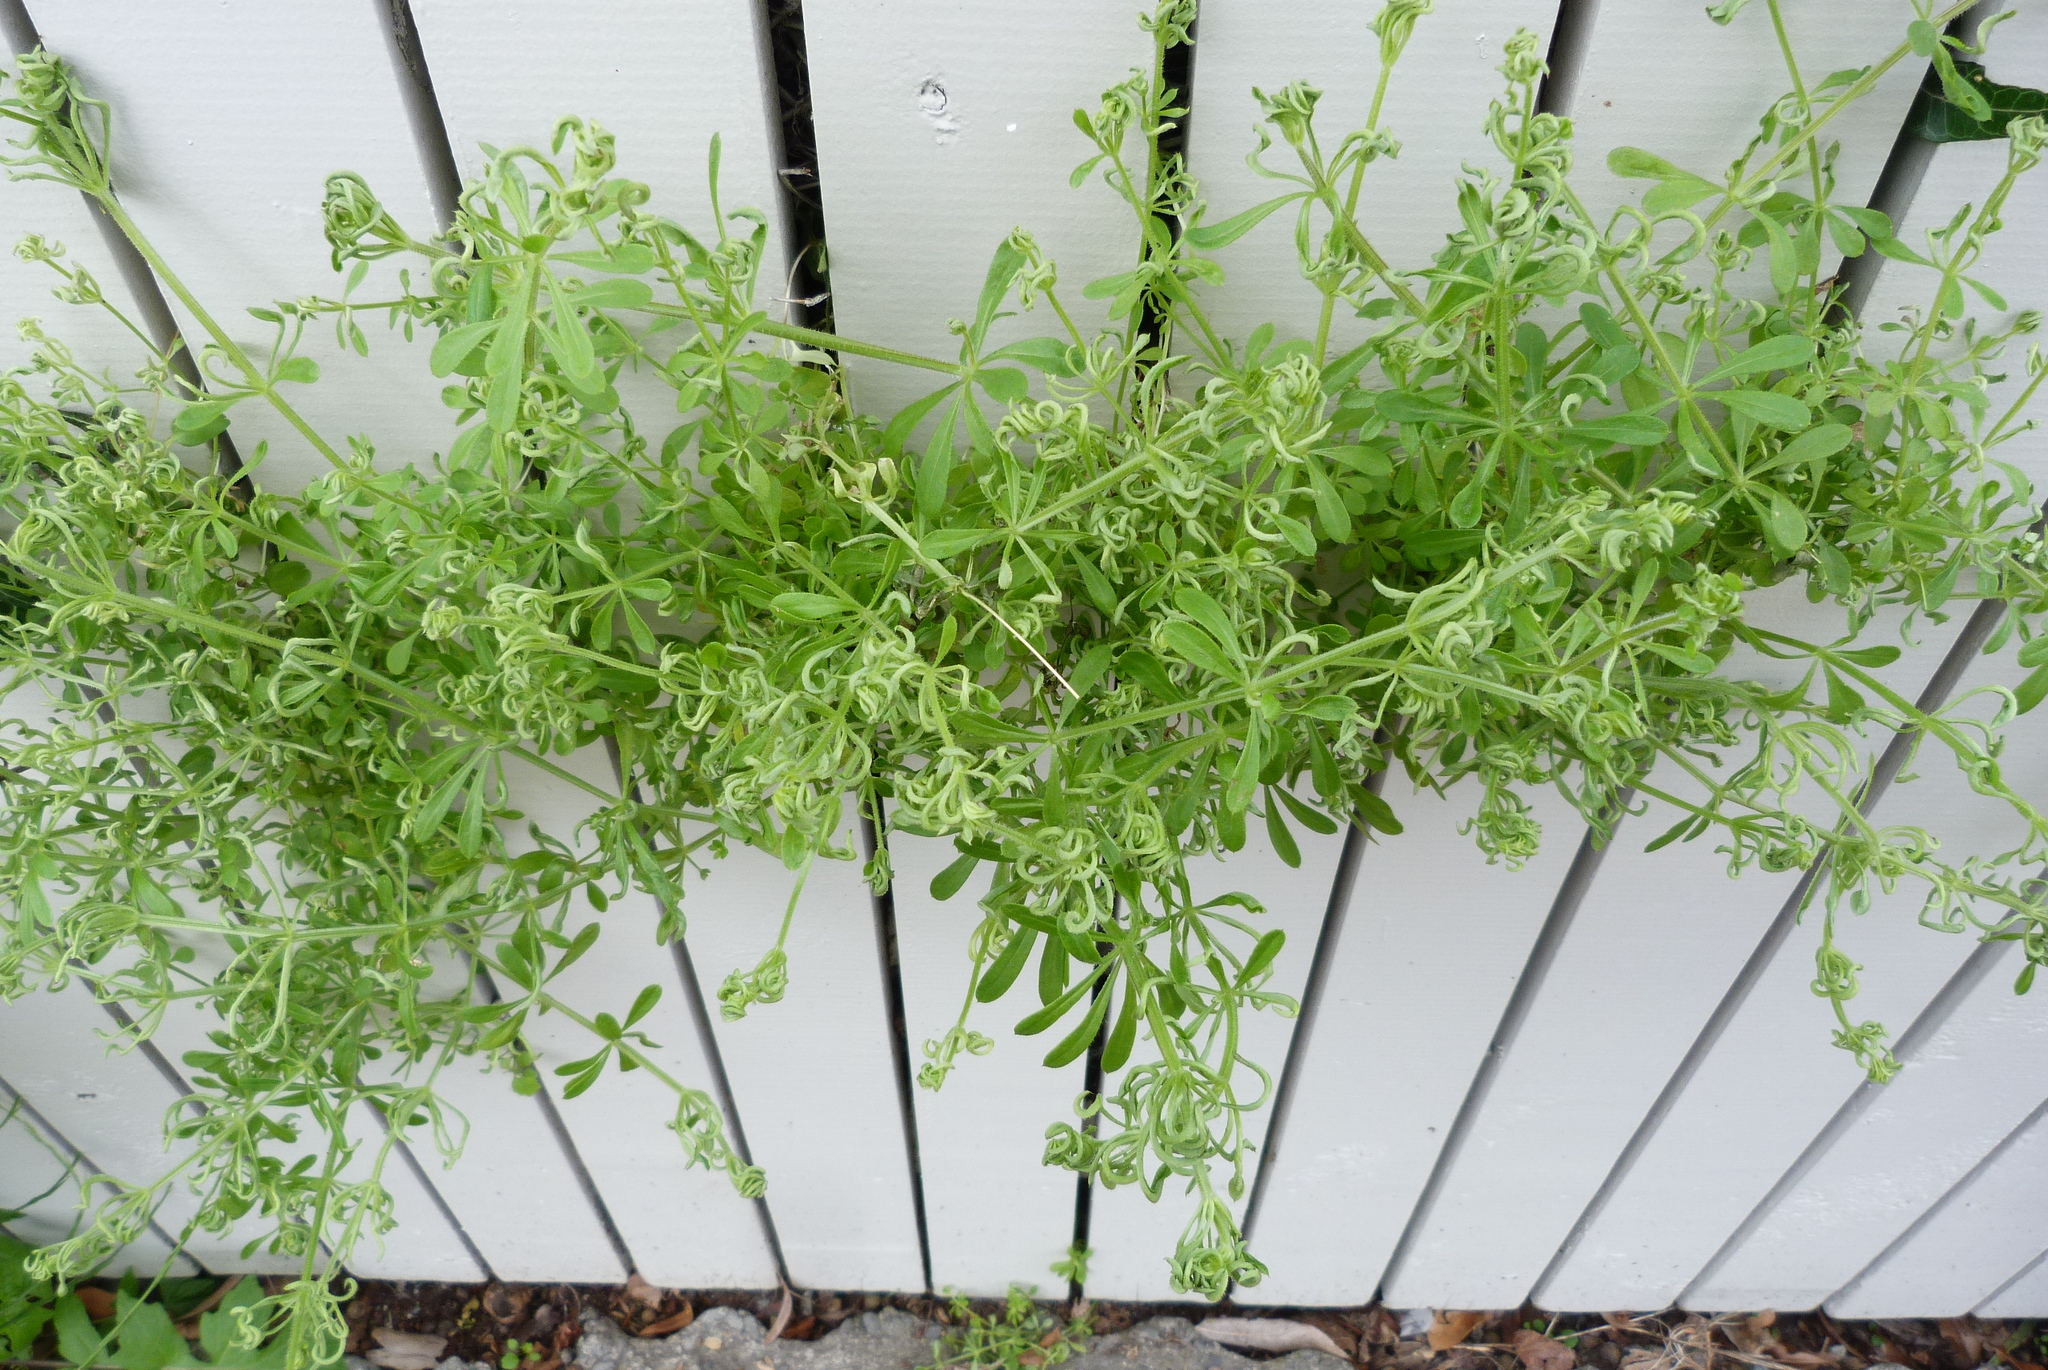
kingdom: Animalia
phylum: Arthropoda
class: Arachnida
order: Trombidiformes
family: Eriophyidae
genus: Cecidophyes
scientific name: Cecidophyes rouhollahi
